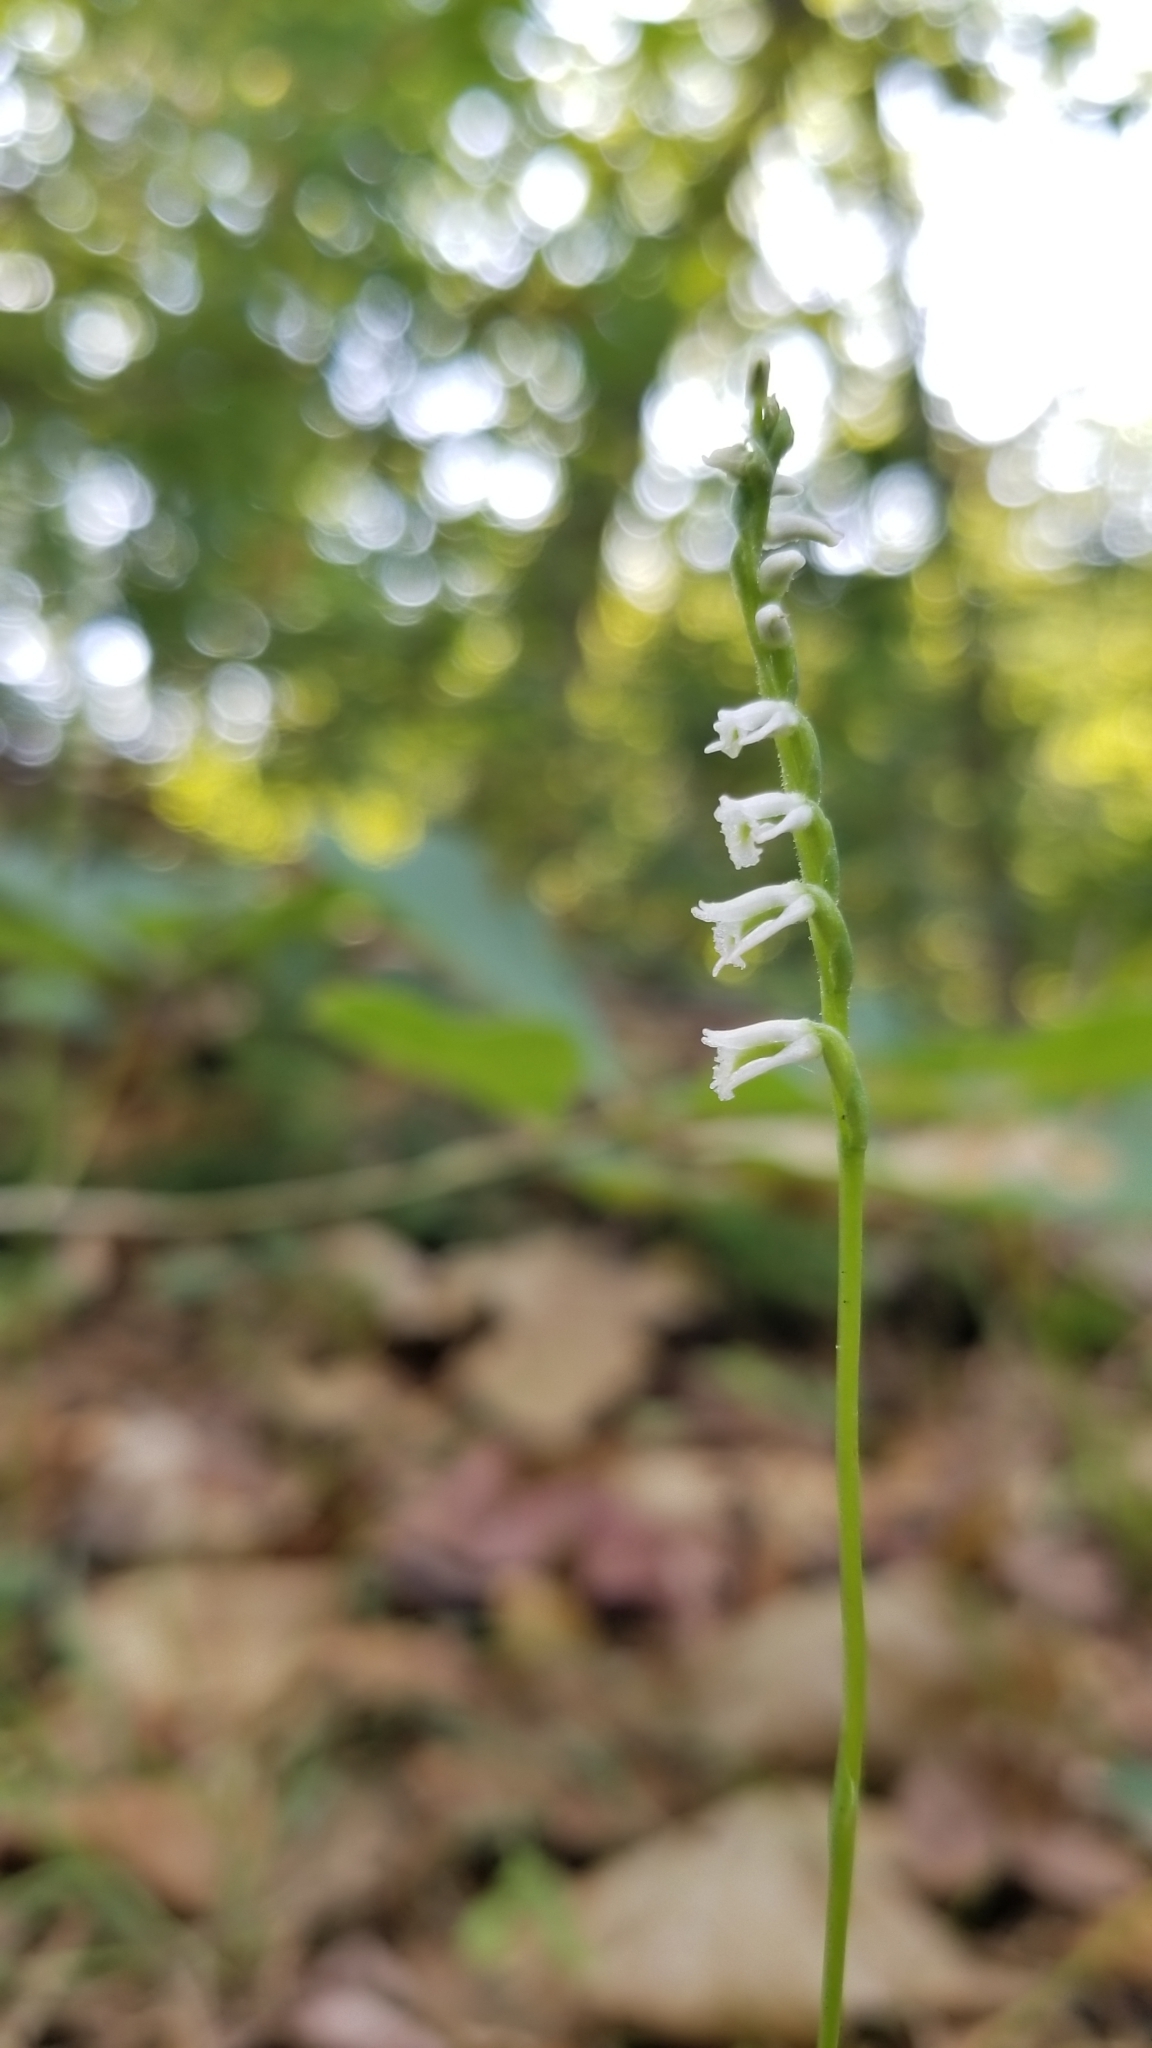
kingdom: Plantae
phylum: Tracheophyta
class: Liliopsida
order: Asparagales
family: Orchidaceae
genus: Spiranthes
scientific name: Spiranthes lacera
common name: Northern slender ladies'-tresses
